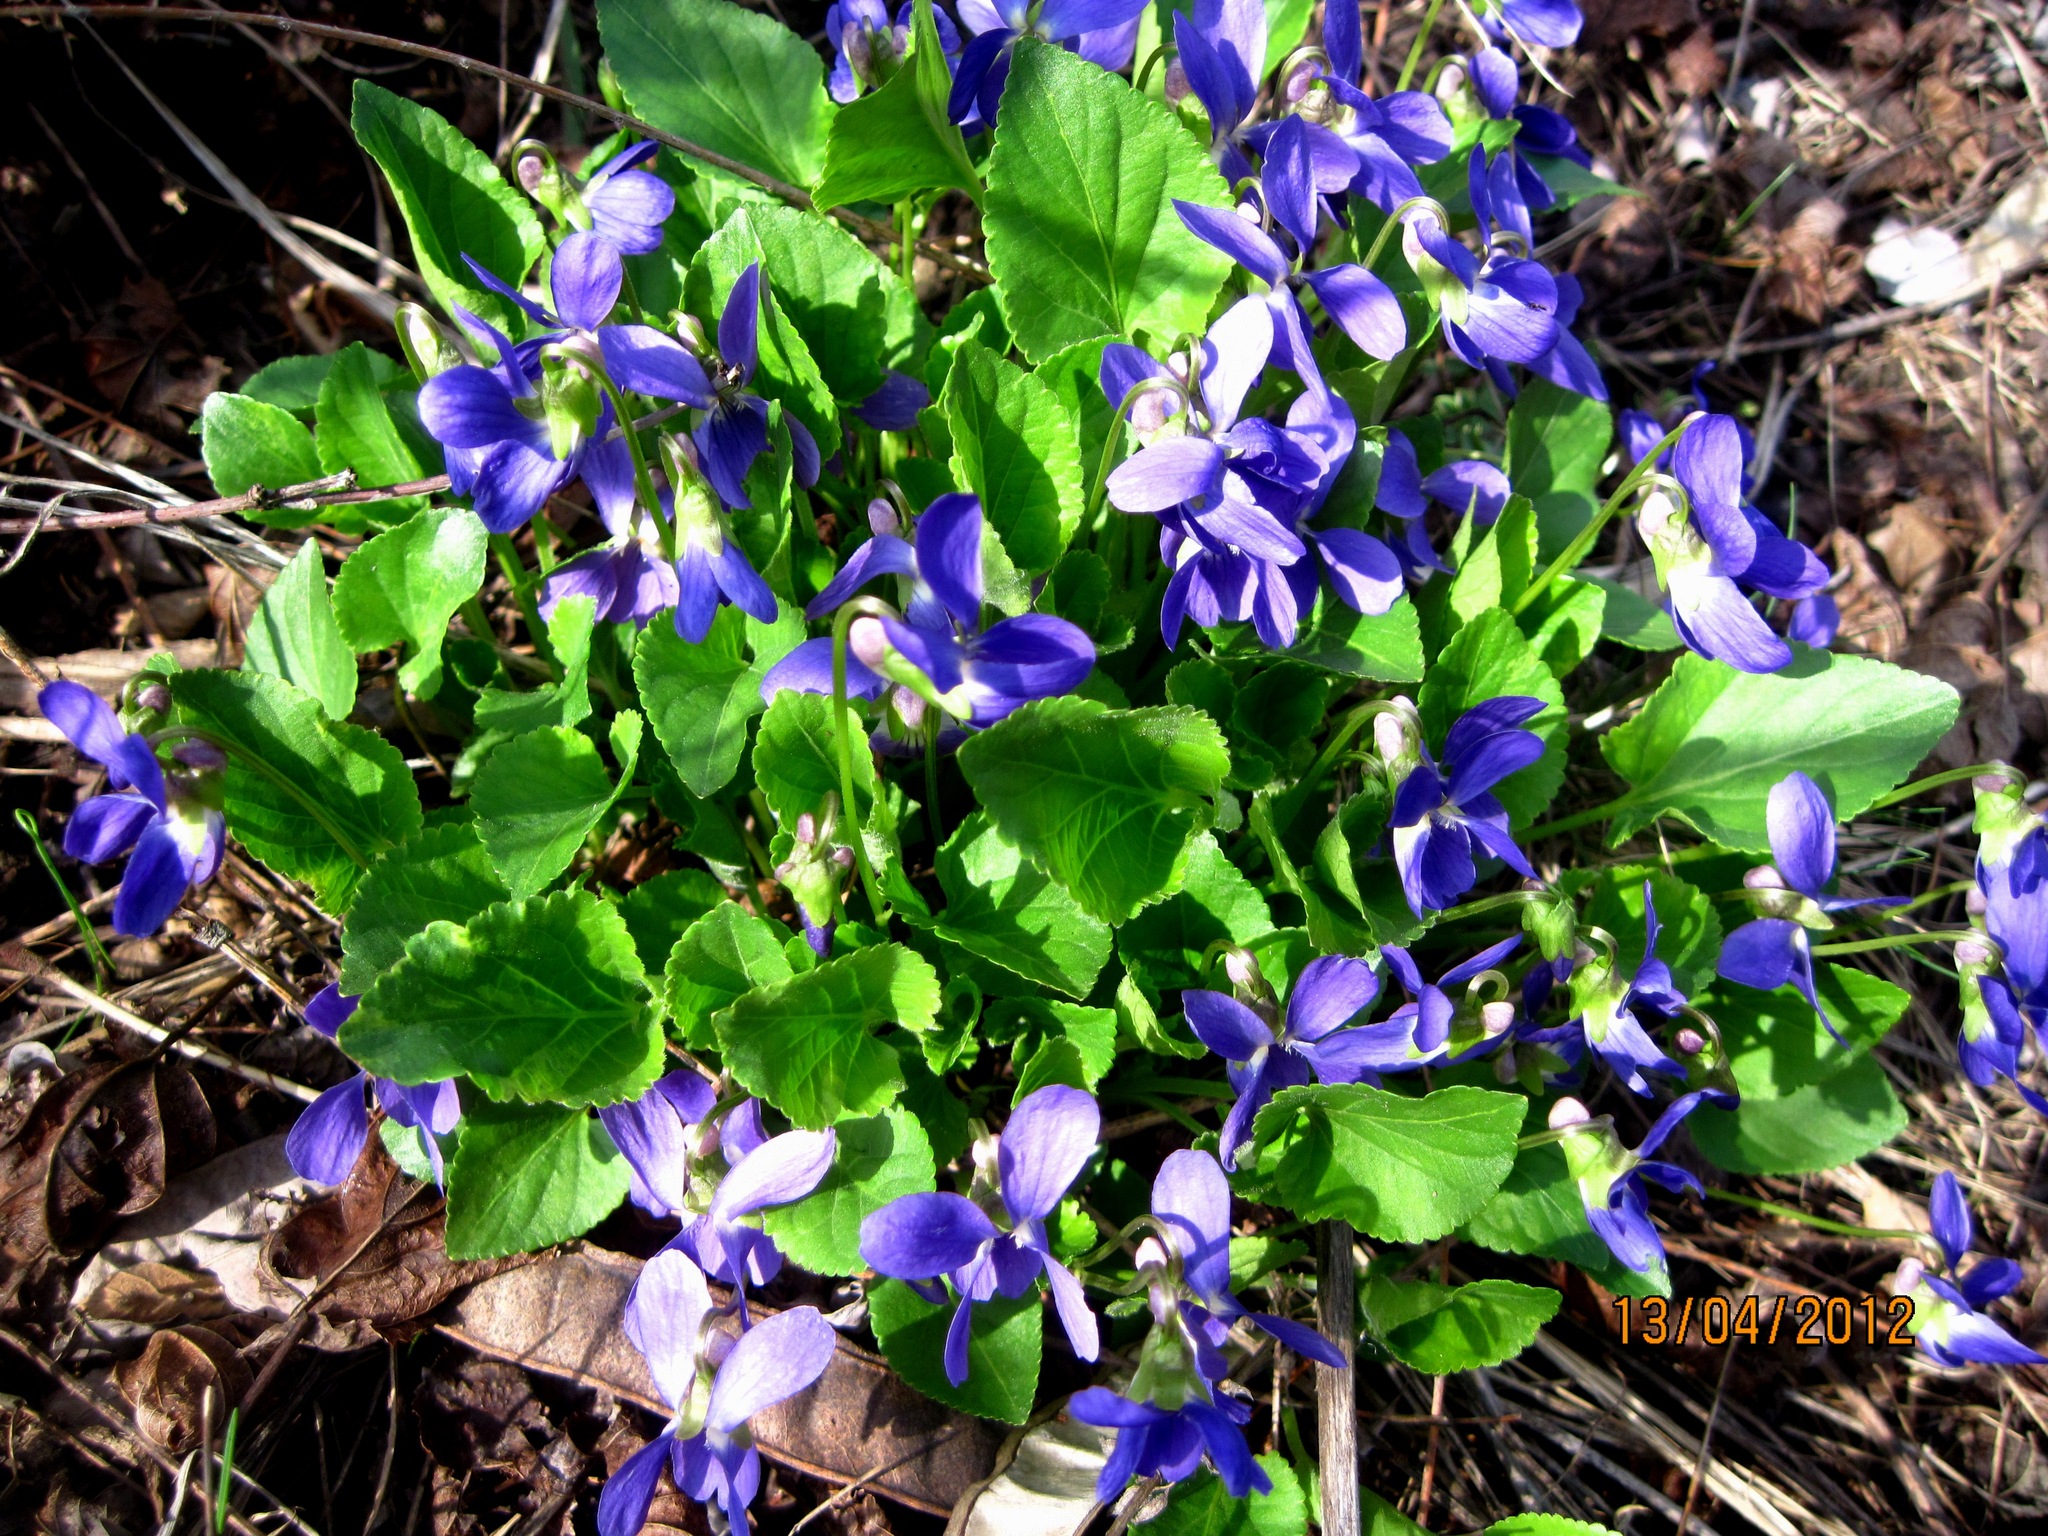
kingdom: Plantae
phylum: Tracheophyta
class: Magnoliopsida
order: Malpighiales
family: Violaceae
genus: Viola
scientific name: Viola odorata
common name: Sweet violet
